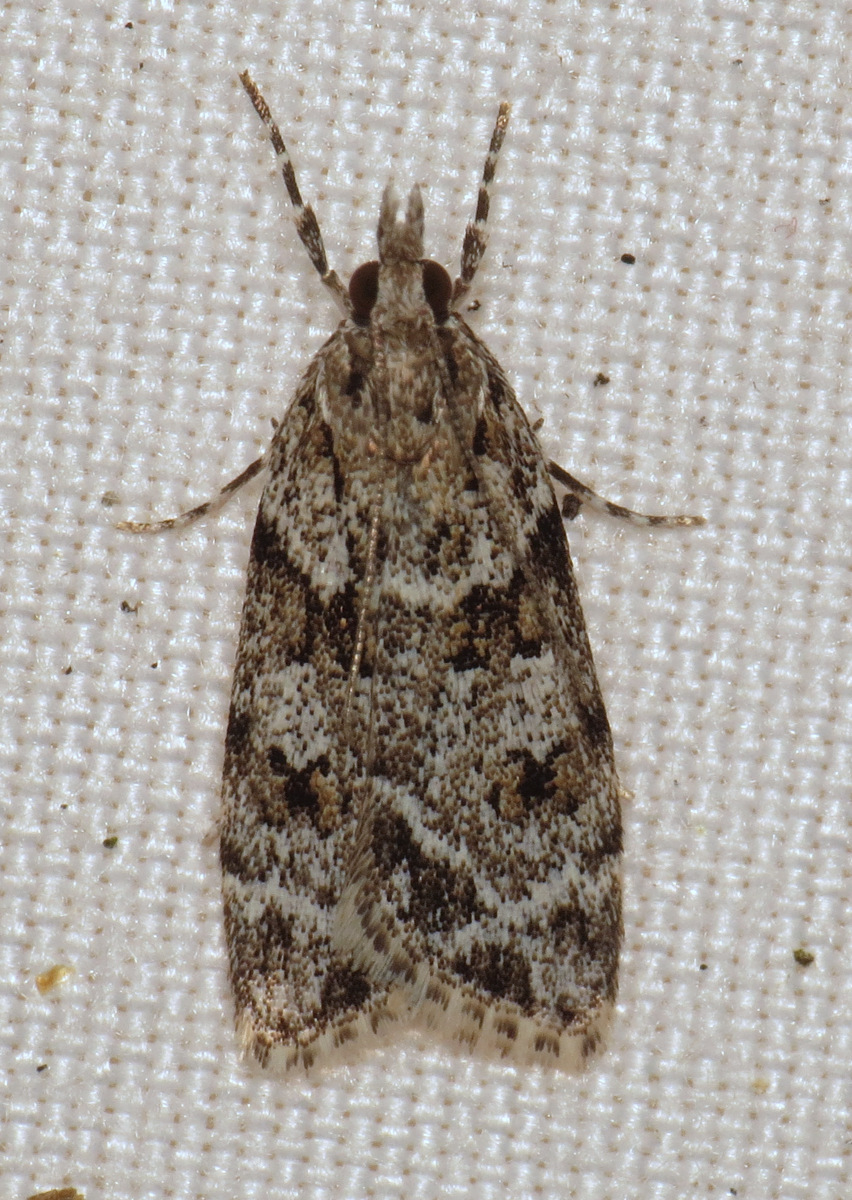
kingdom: Animalia
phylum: Arthropoda
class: Insecta
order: Lepidoptera
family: Crambidae
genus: Scoparia
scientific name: Scoparia biplagialis
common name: Double-striped scoparia moth
